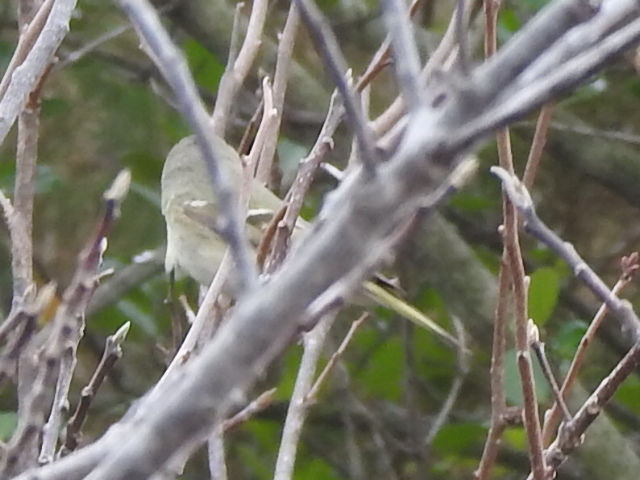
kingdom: Animalia
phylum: Chordata
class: Aves
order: Passeriformes
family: Regulidae
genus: Regulus
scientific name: Regulus calendula
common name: Ruby-crowned kinglet
